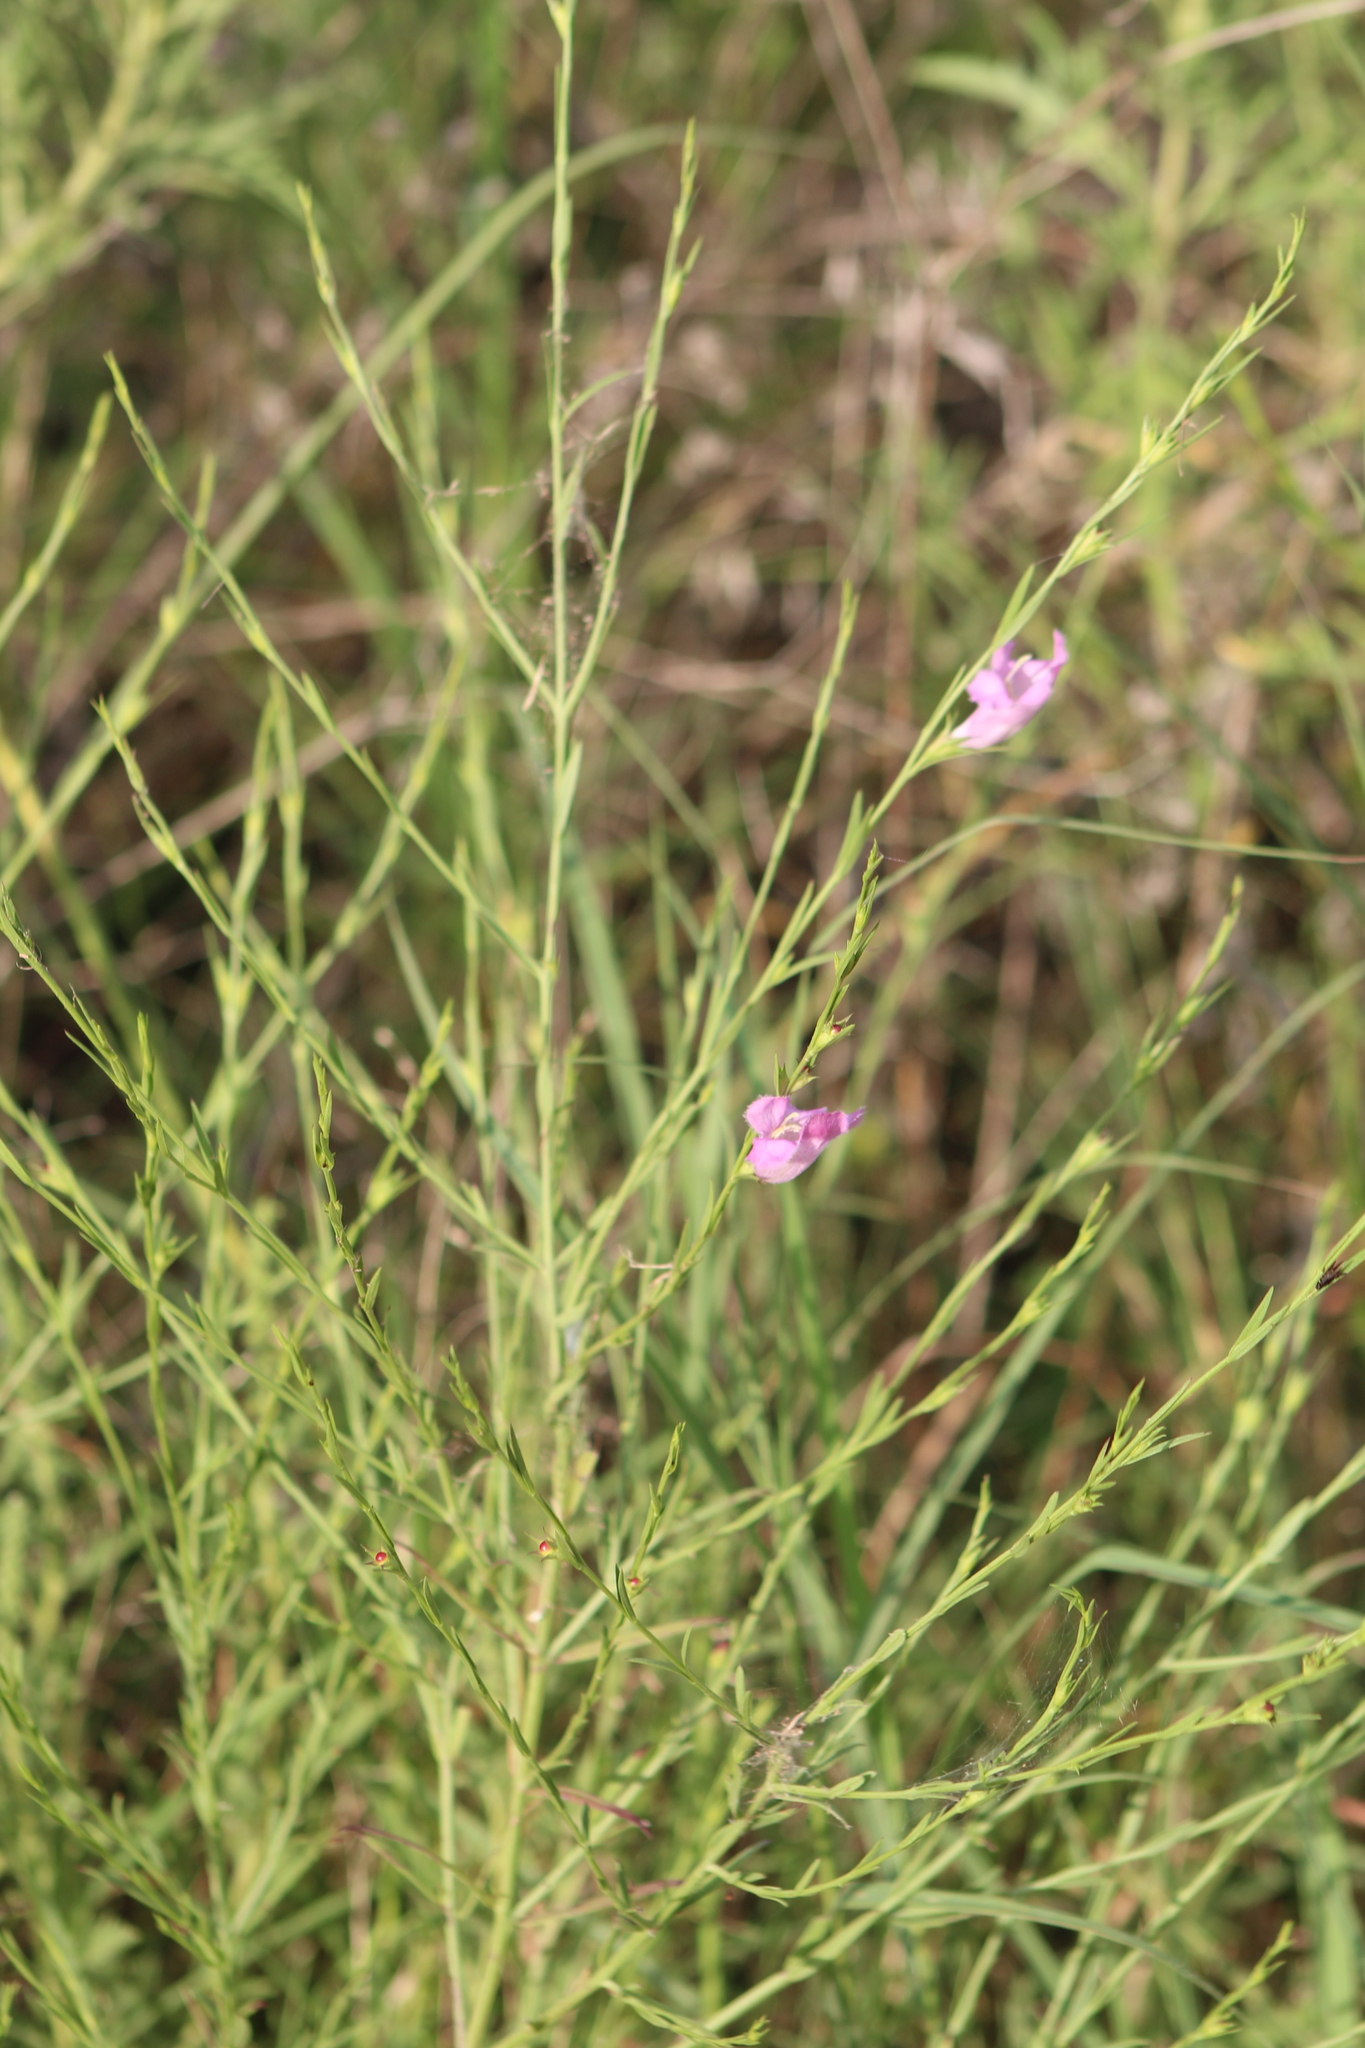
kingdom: Plantae
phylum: Tracheophyta
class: Magnoliopsida
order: Lamiales
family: Orobanchaceae
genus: Agalinis
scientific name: Agalinis heterophylla
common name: Prairie agalinis
